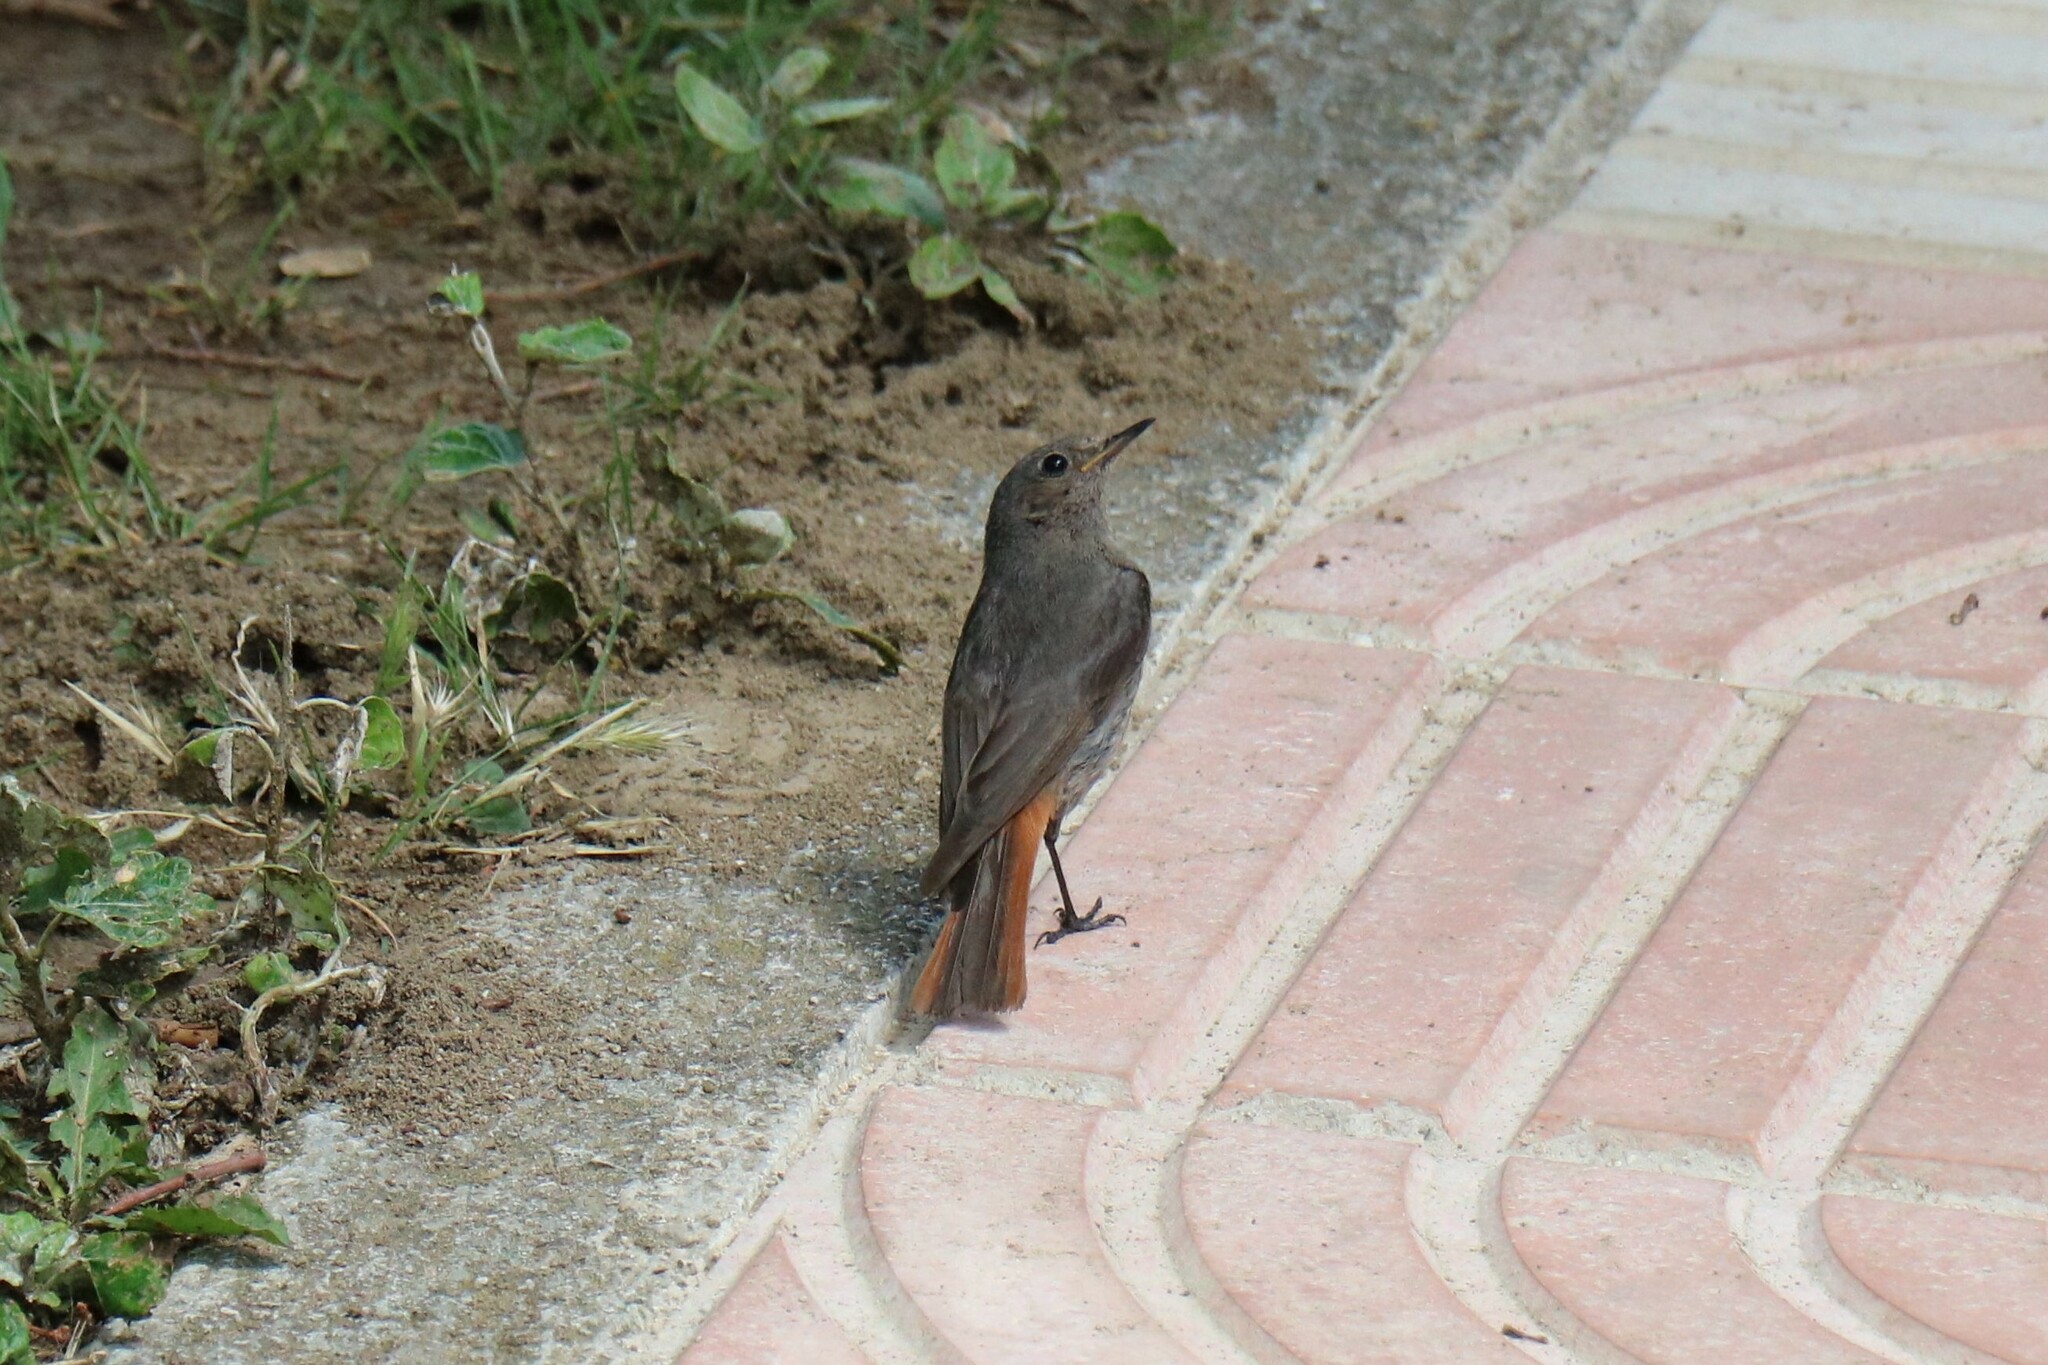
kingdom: Animalia
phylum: Chordata
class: Aves
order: Passeriformes
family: Muscicapidae
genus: Phoenicurus
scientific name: Phoenicurus ochruros
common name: Black redstart
